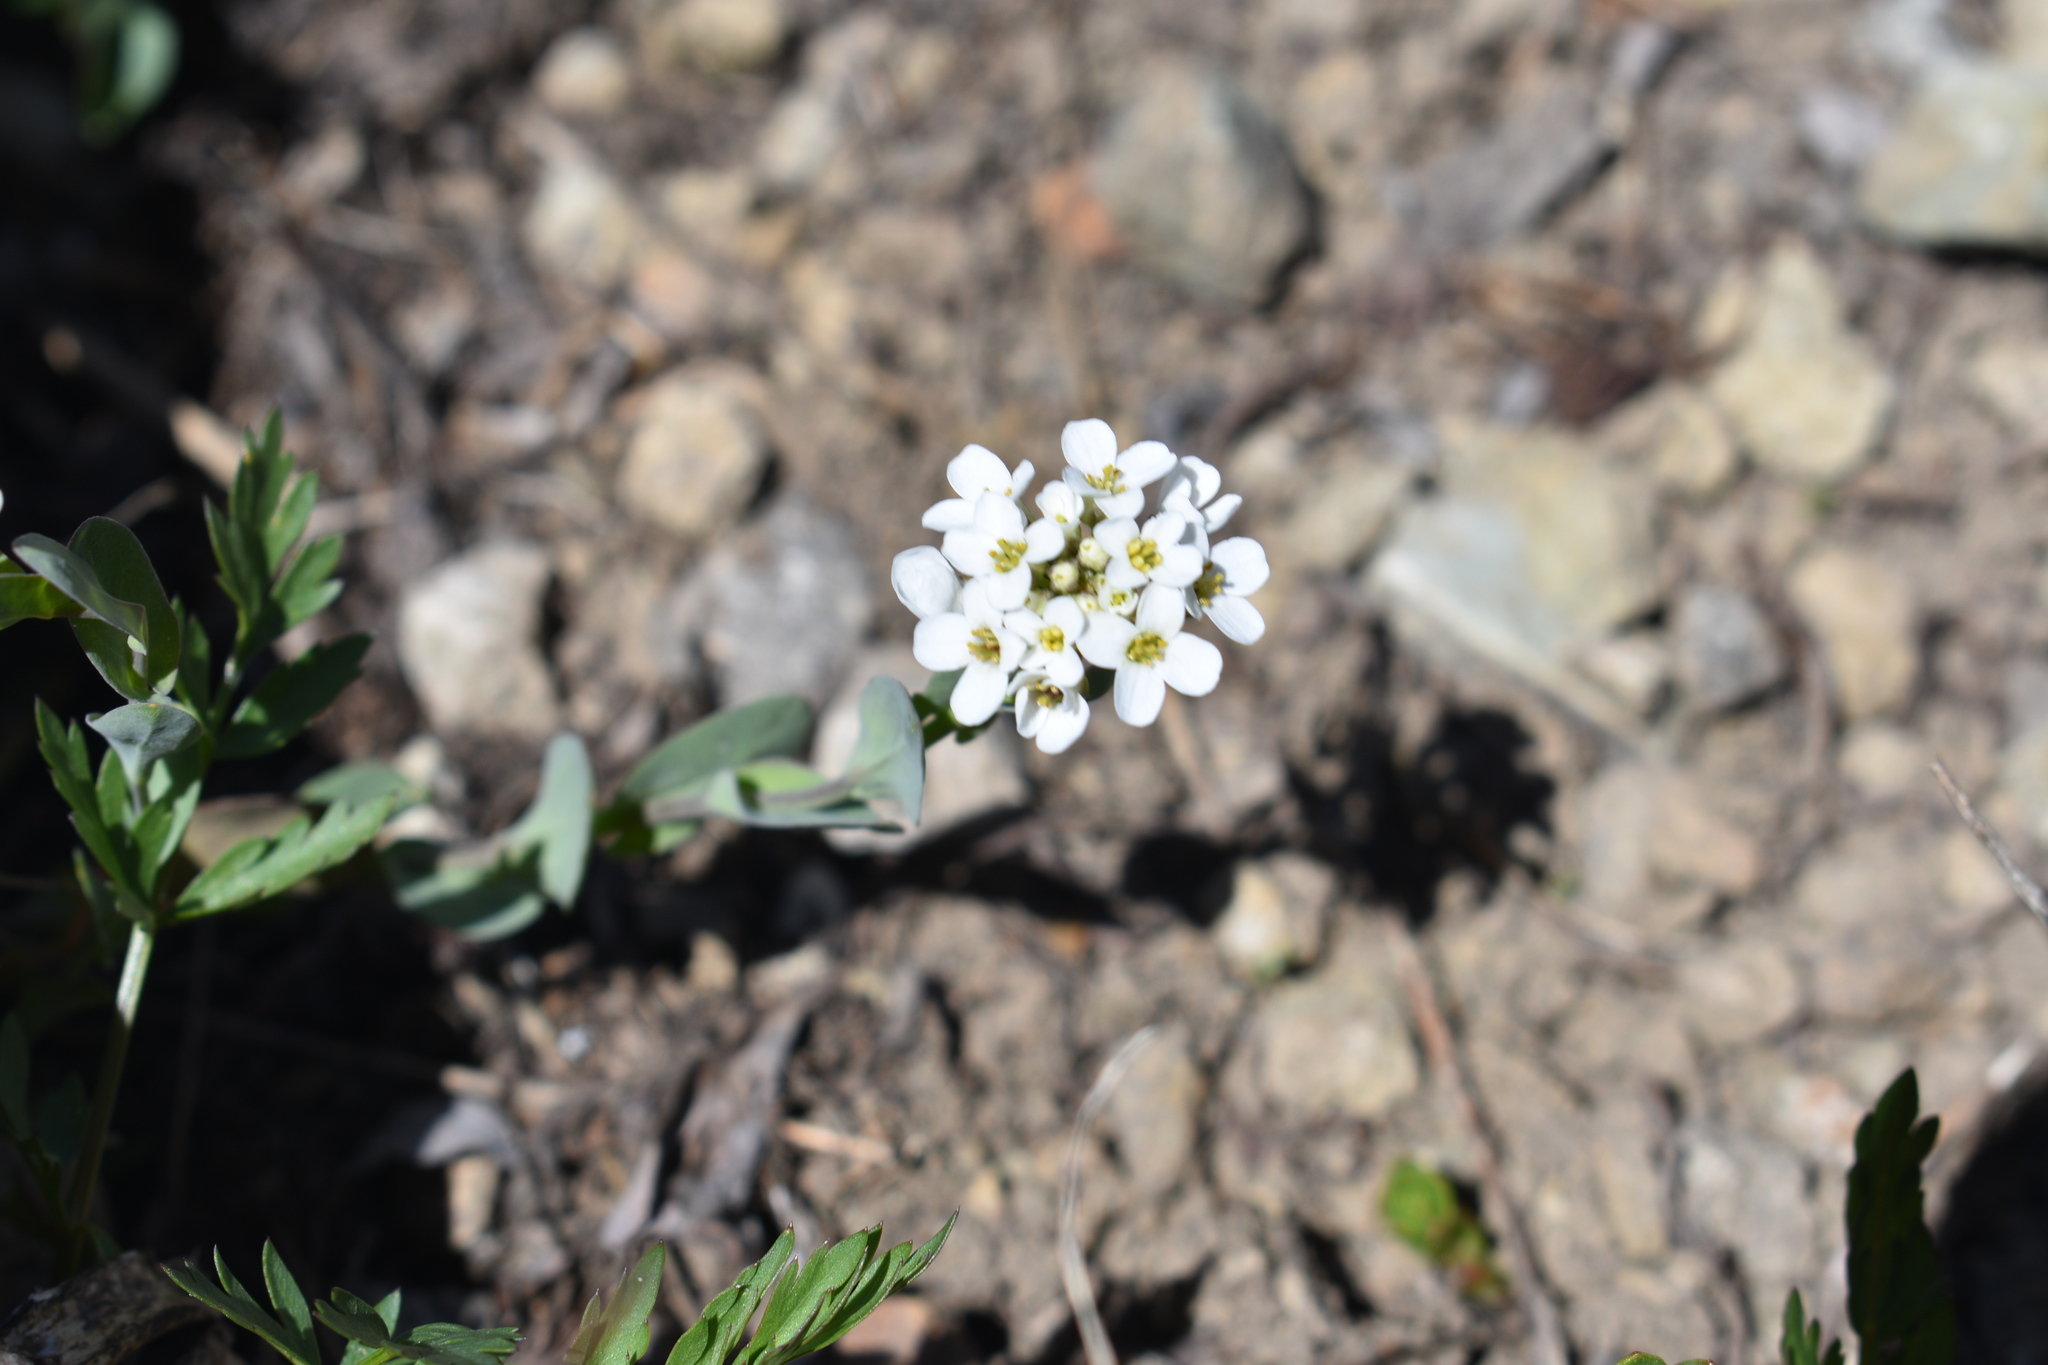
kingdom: Plantae
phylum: Tracheophyta
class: Magnoliopsida
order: Brassicales
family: Brassicaceae
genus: Noccaea
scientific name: Noccaea fendleri
